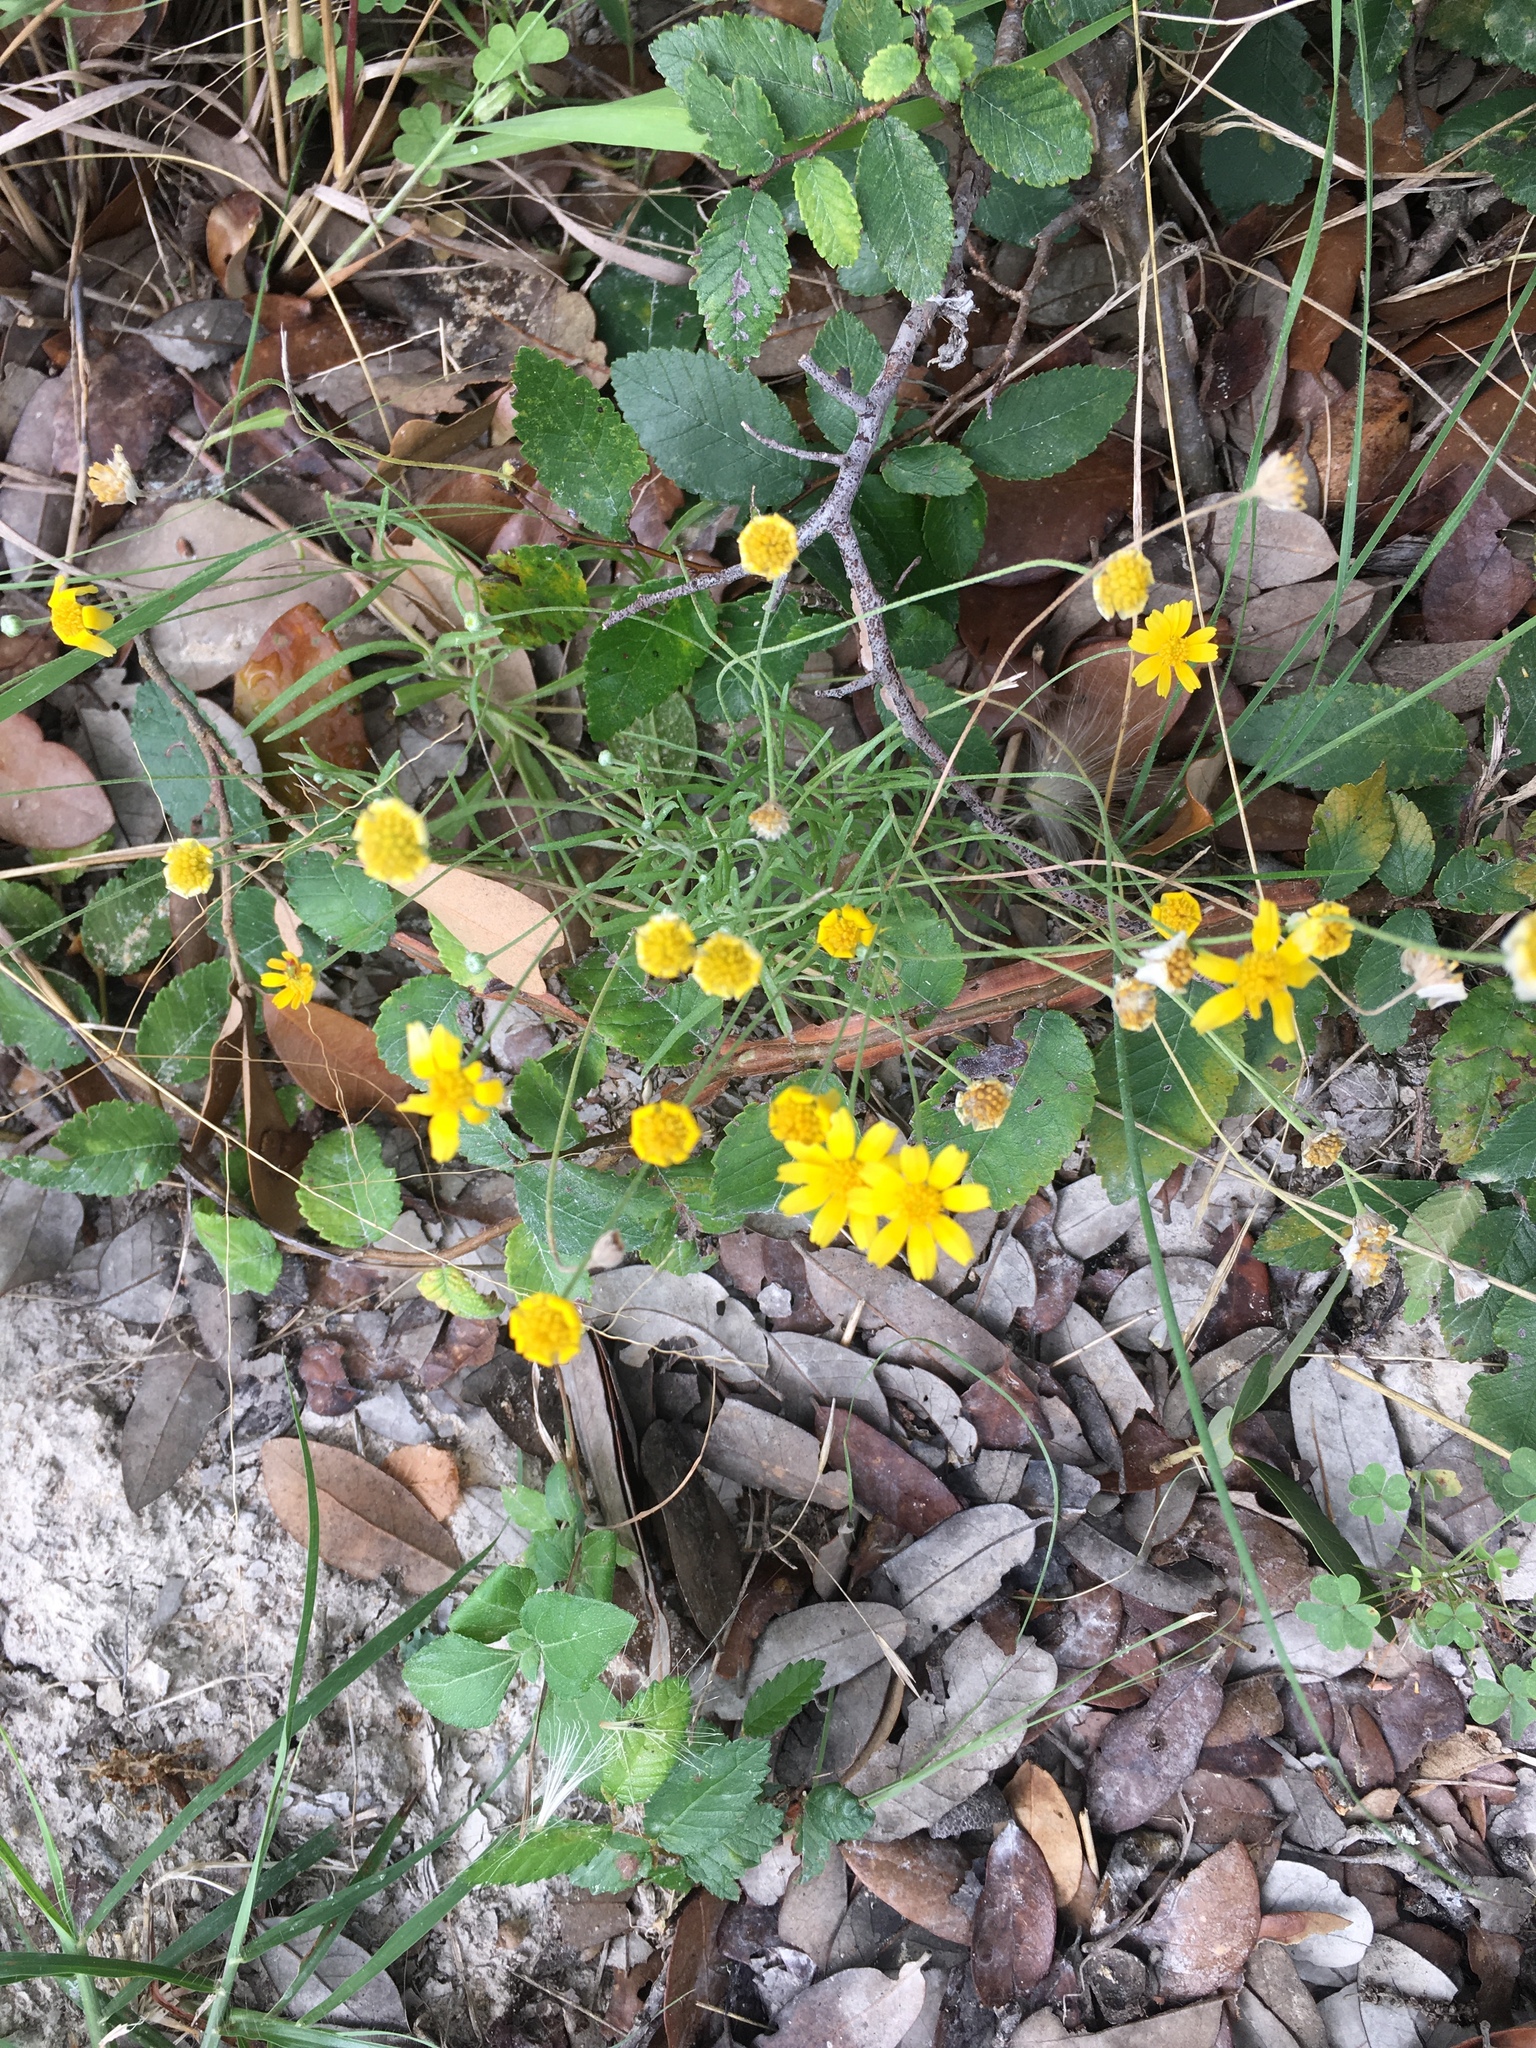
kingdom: Plantae
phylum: Tracheophyta
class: Magnoliopsida
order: Asterales
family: Asteraceae
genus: Tetraneuris
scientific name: Tetraneuris linearifolia
